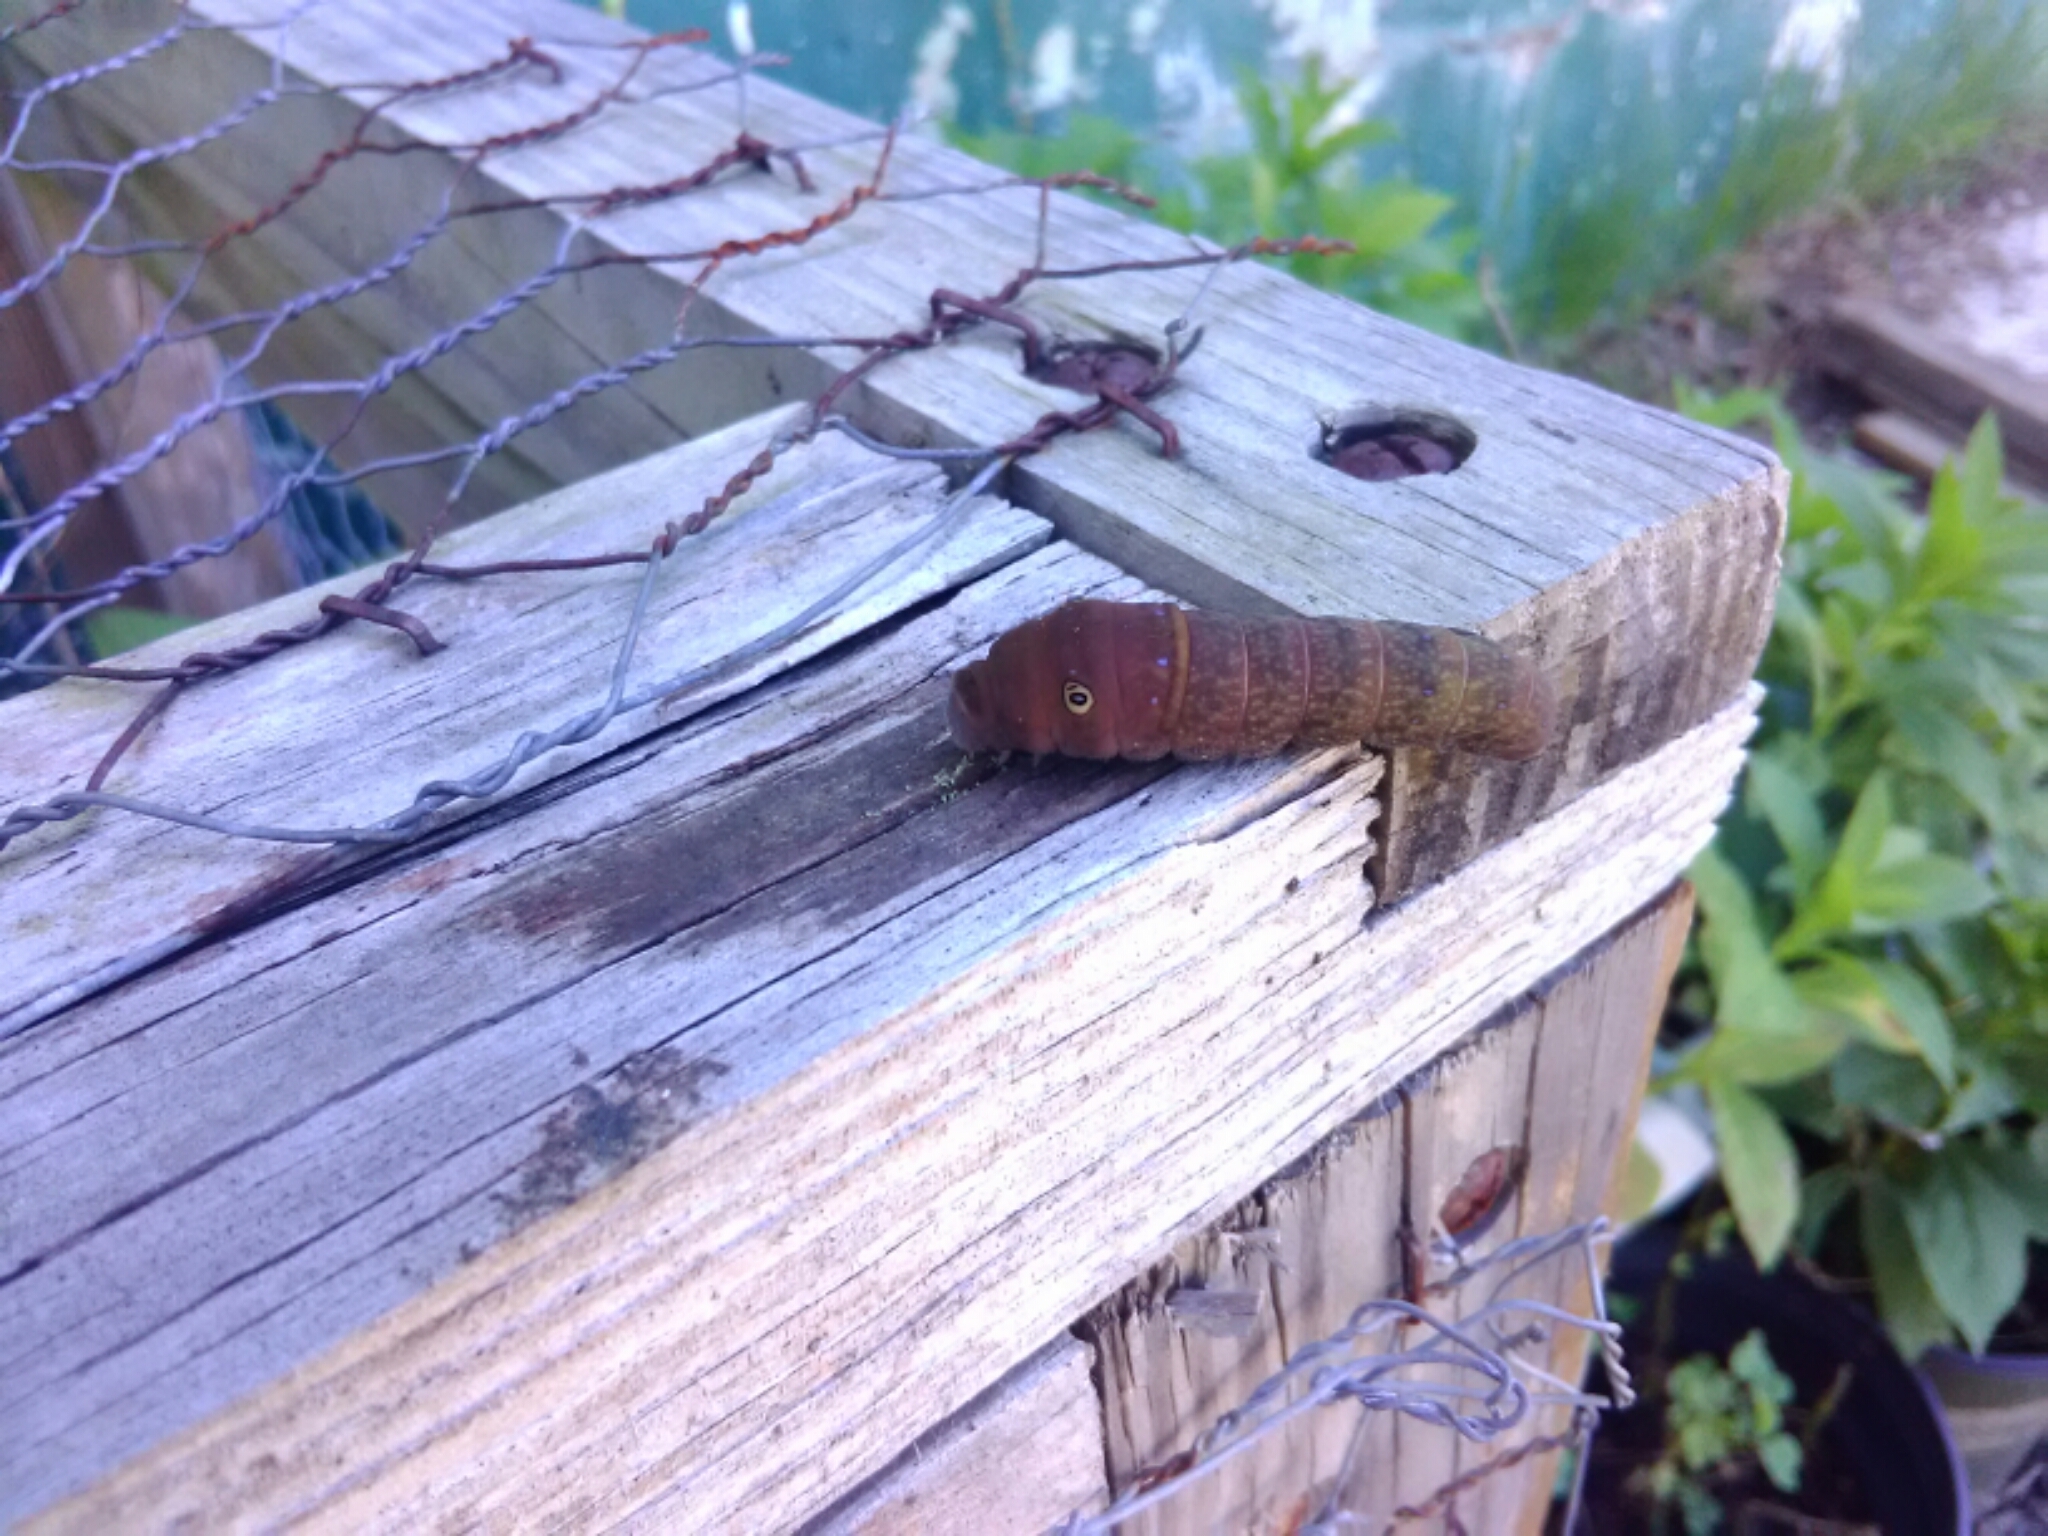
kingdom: Animalia
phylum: Arthropoda
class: Insecta
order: Lepidoptera
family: Papilionidae
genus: Papilio
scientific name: Papilio glaucus
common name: Tiger swallowtail
